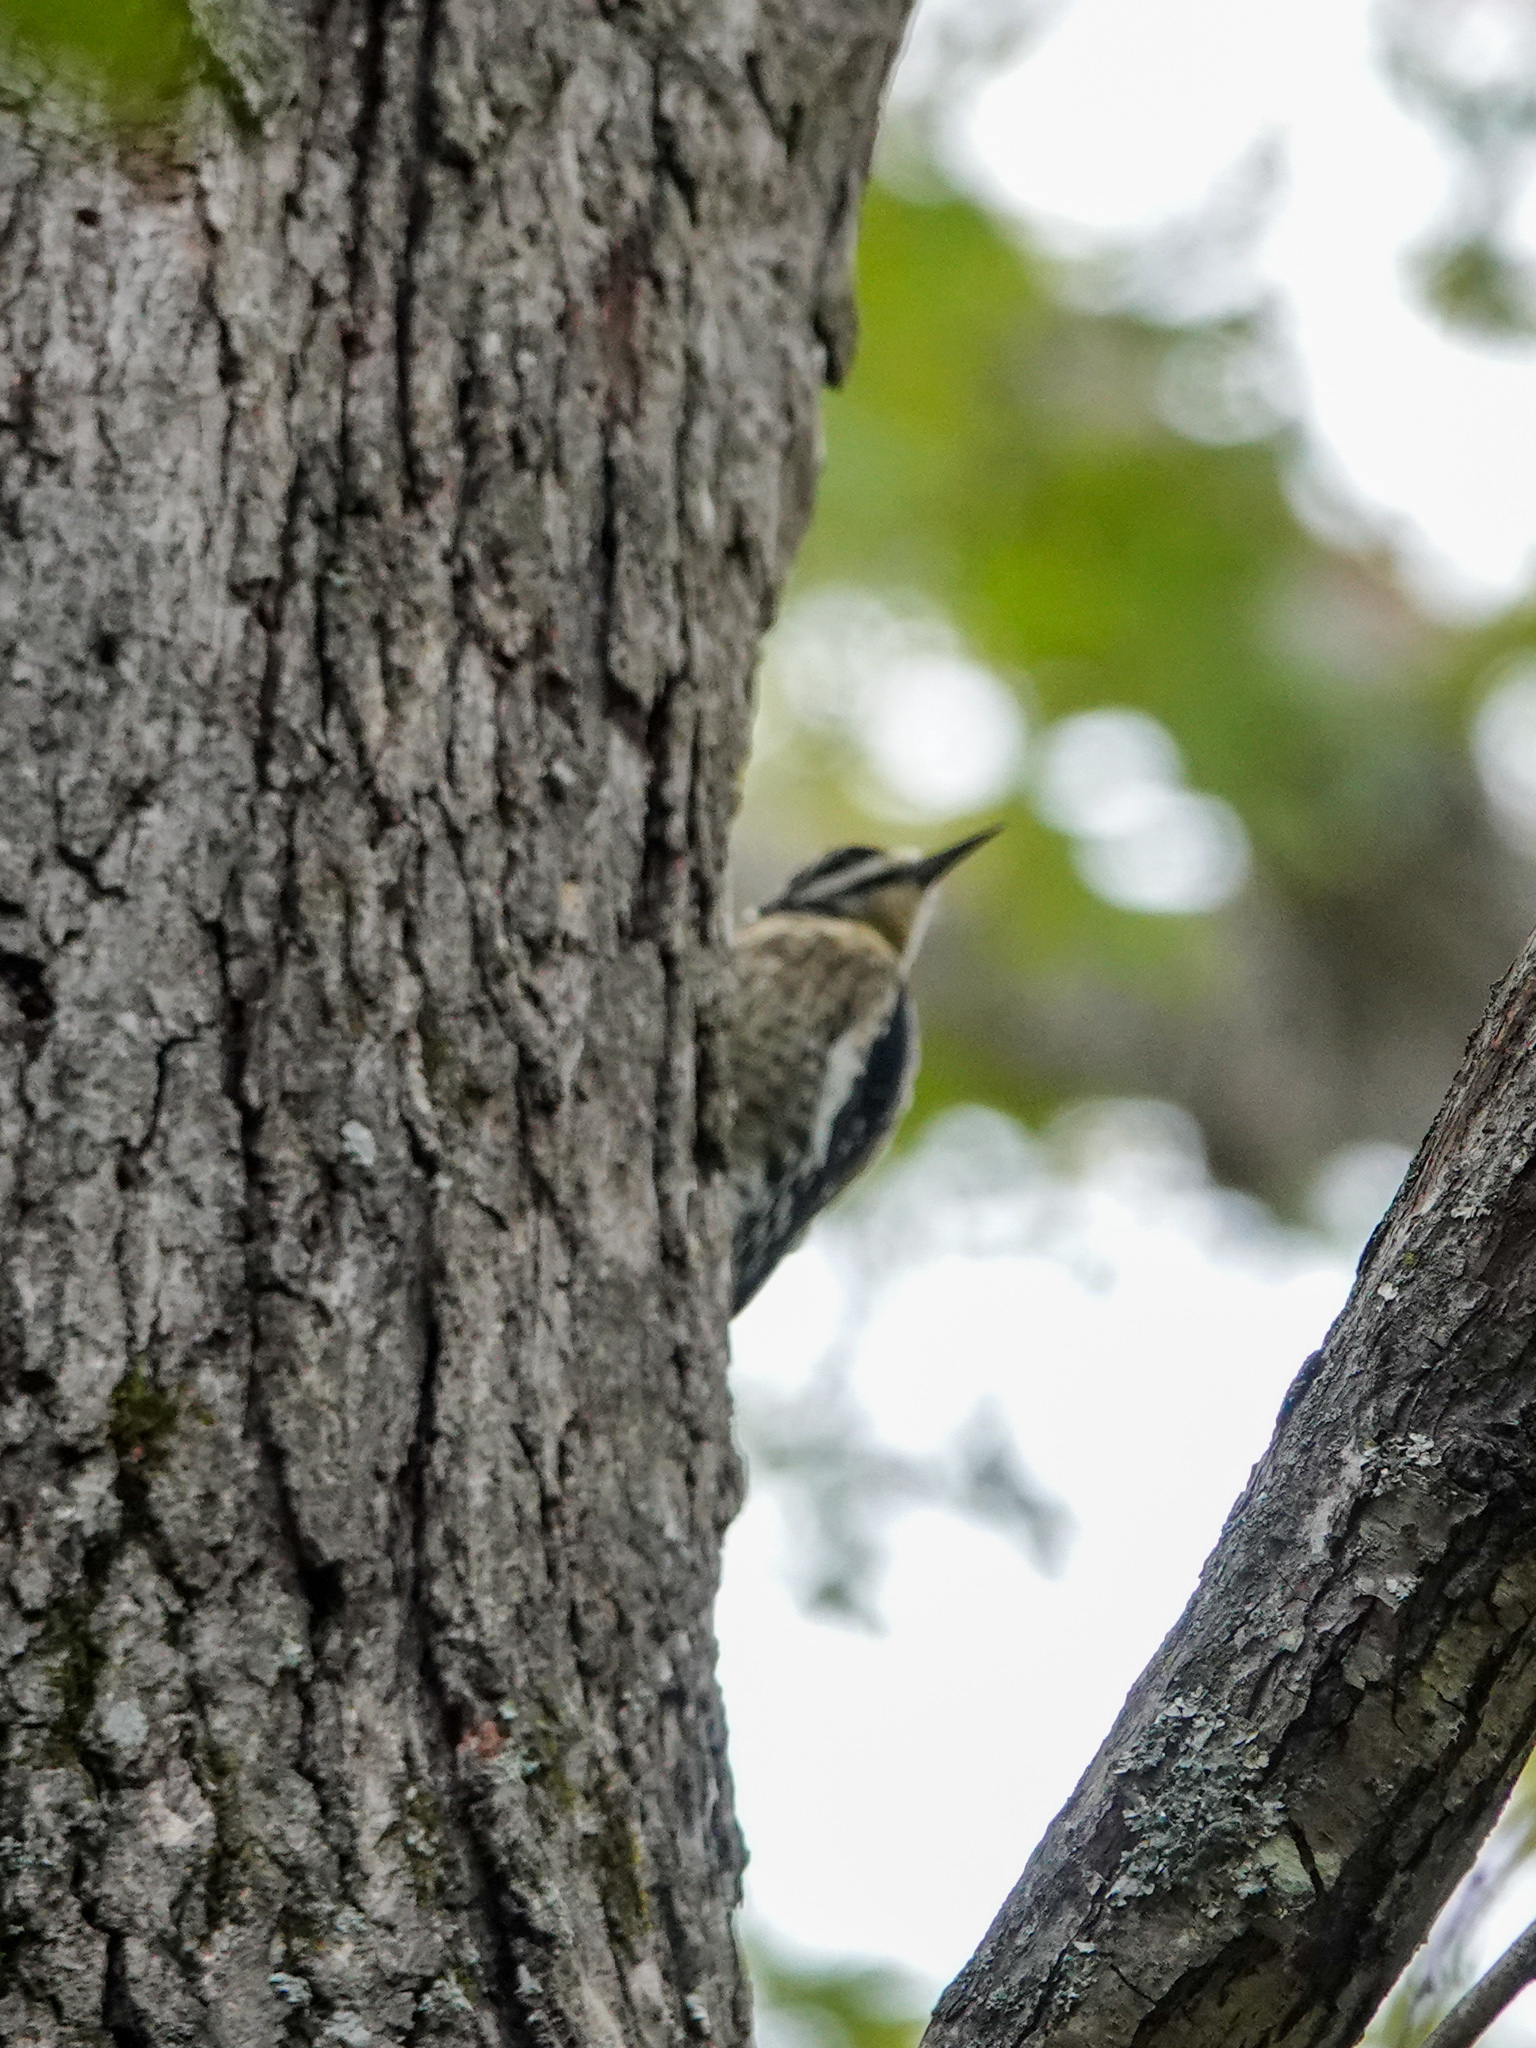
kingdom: Animalia
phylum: Chordata
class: Aves
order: Piciformes
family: Picidae
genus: Sphyrapicus
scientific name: Sphyrapicus varius
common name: Yellow-bellied sapsucker
